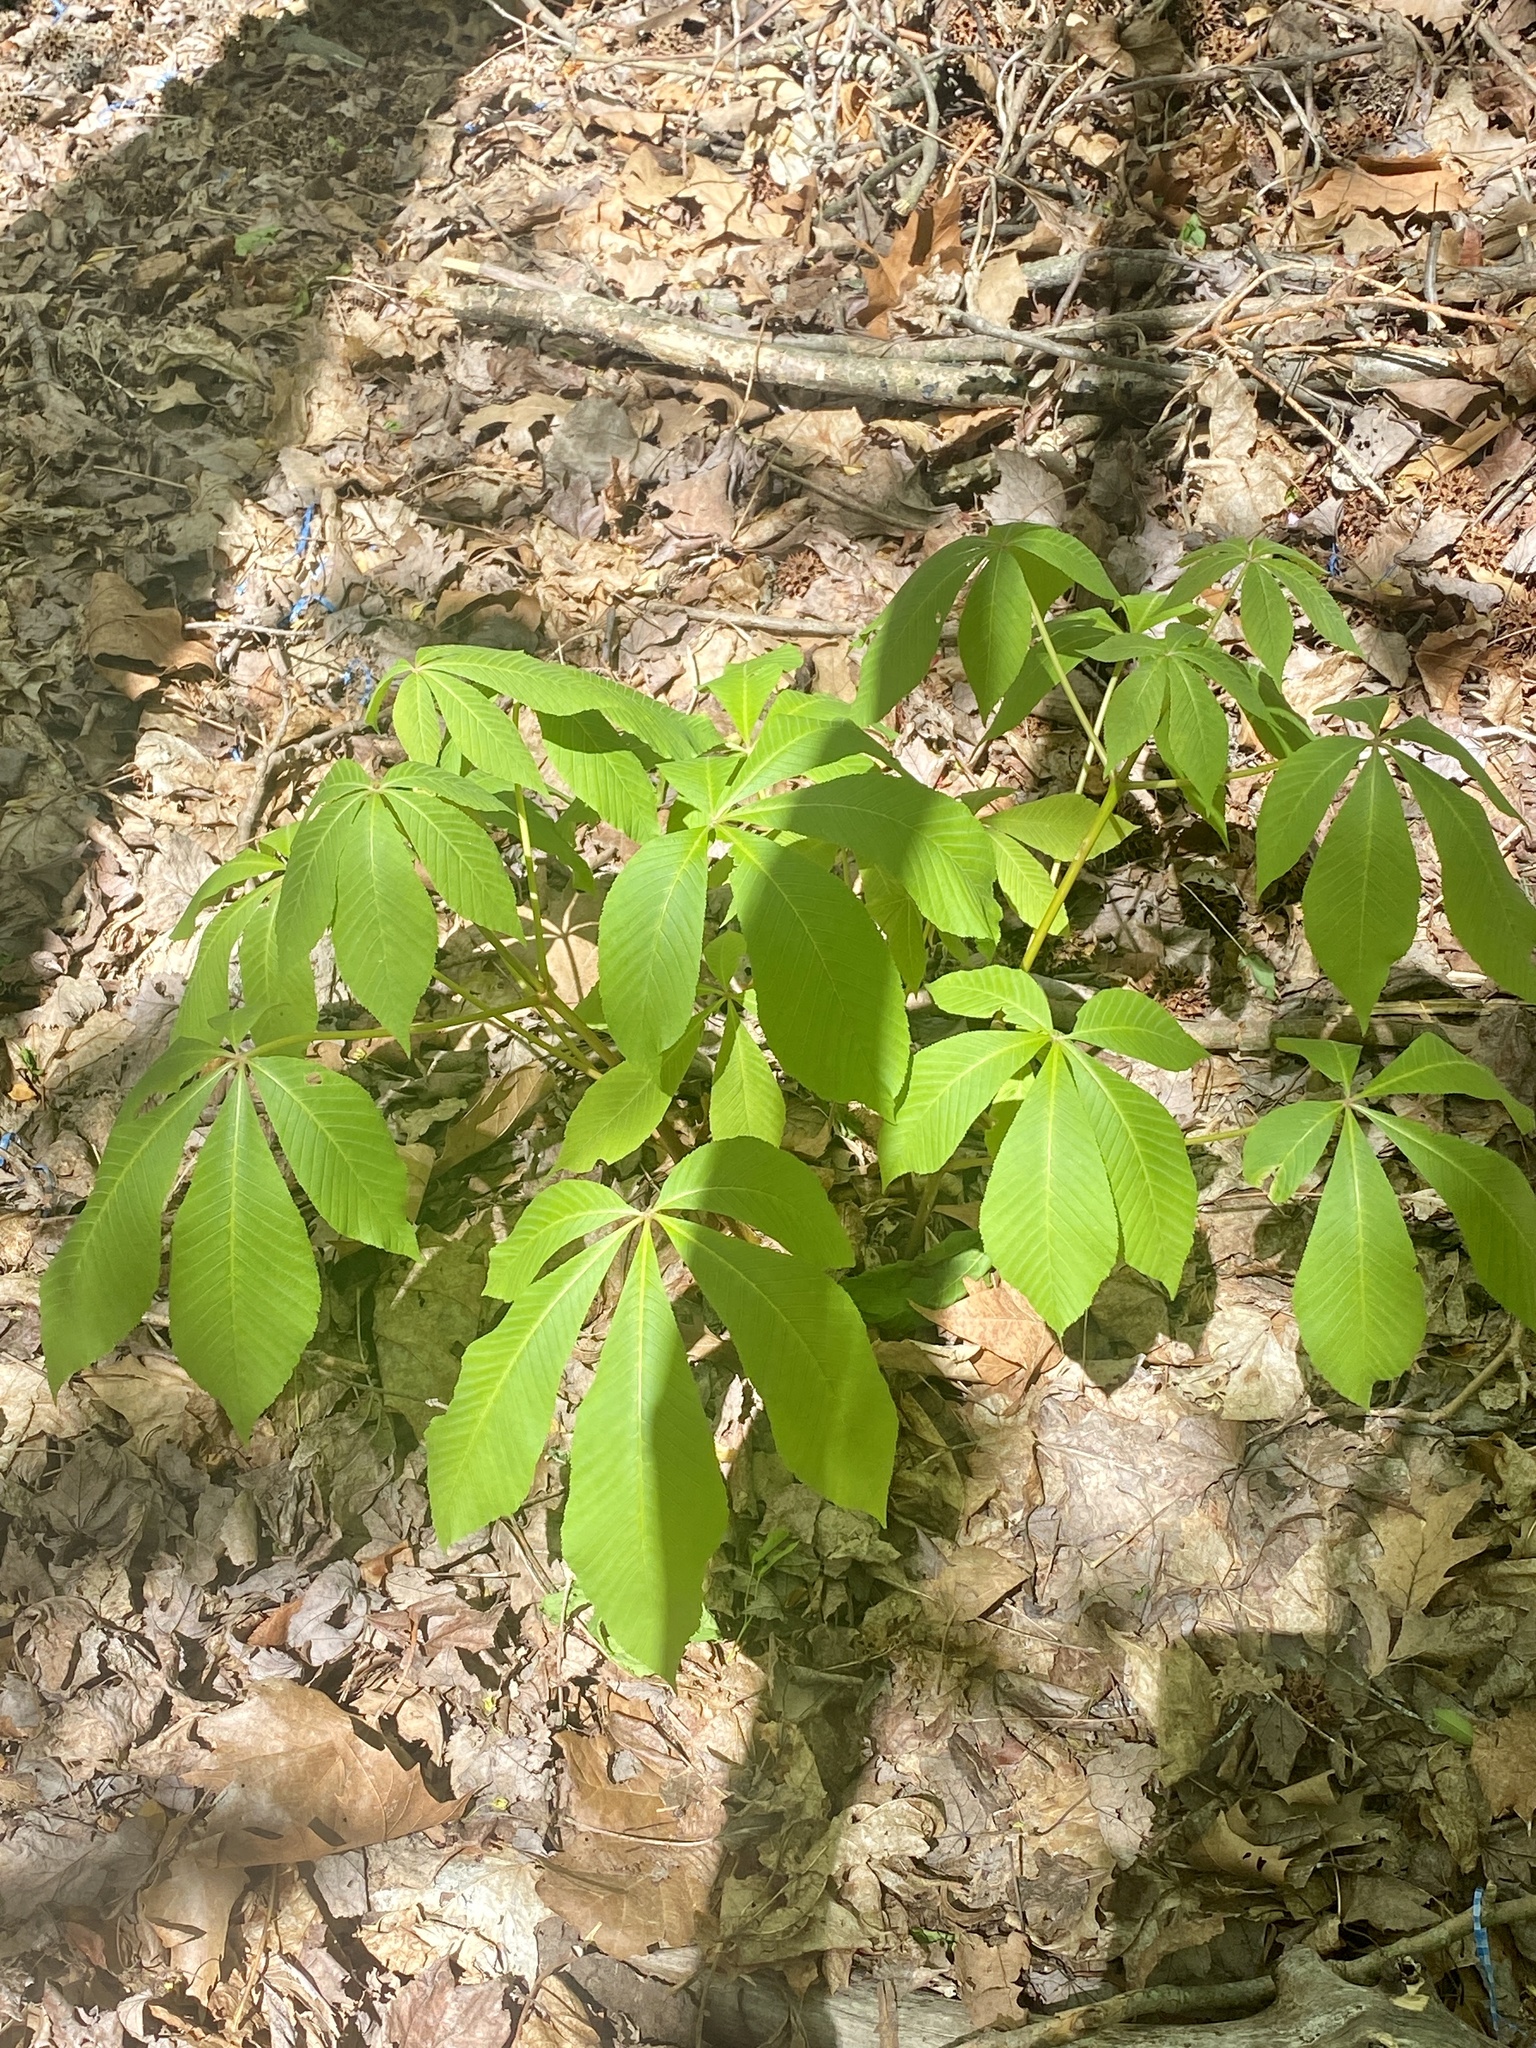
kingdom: Plantae
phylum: Tracheophyta
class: Magnoliopsida
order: Sapindales
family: Sapindaceae
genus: Aesculus
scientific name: Aesculus flava
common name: Yellow buckeye
